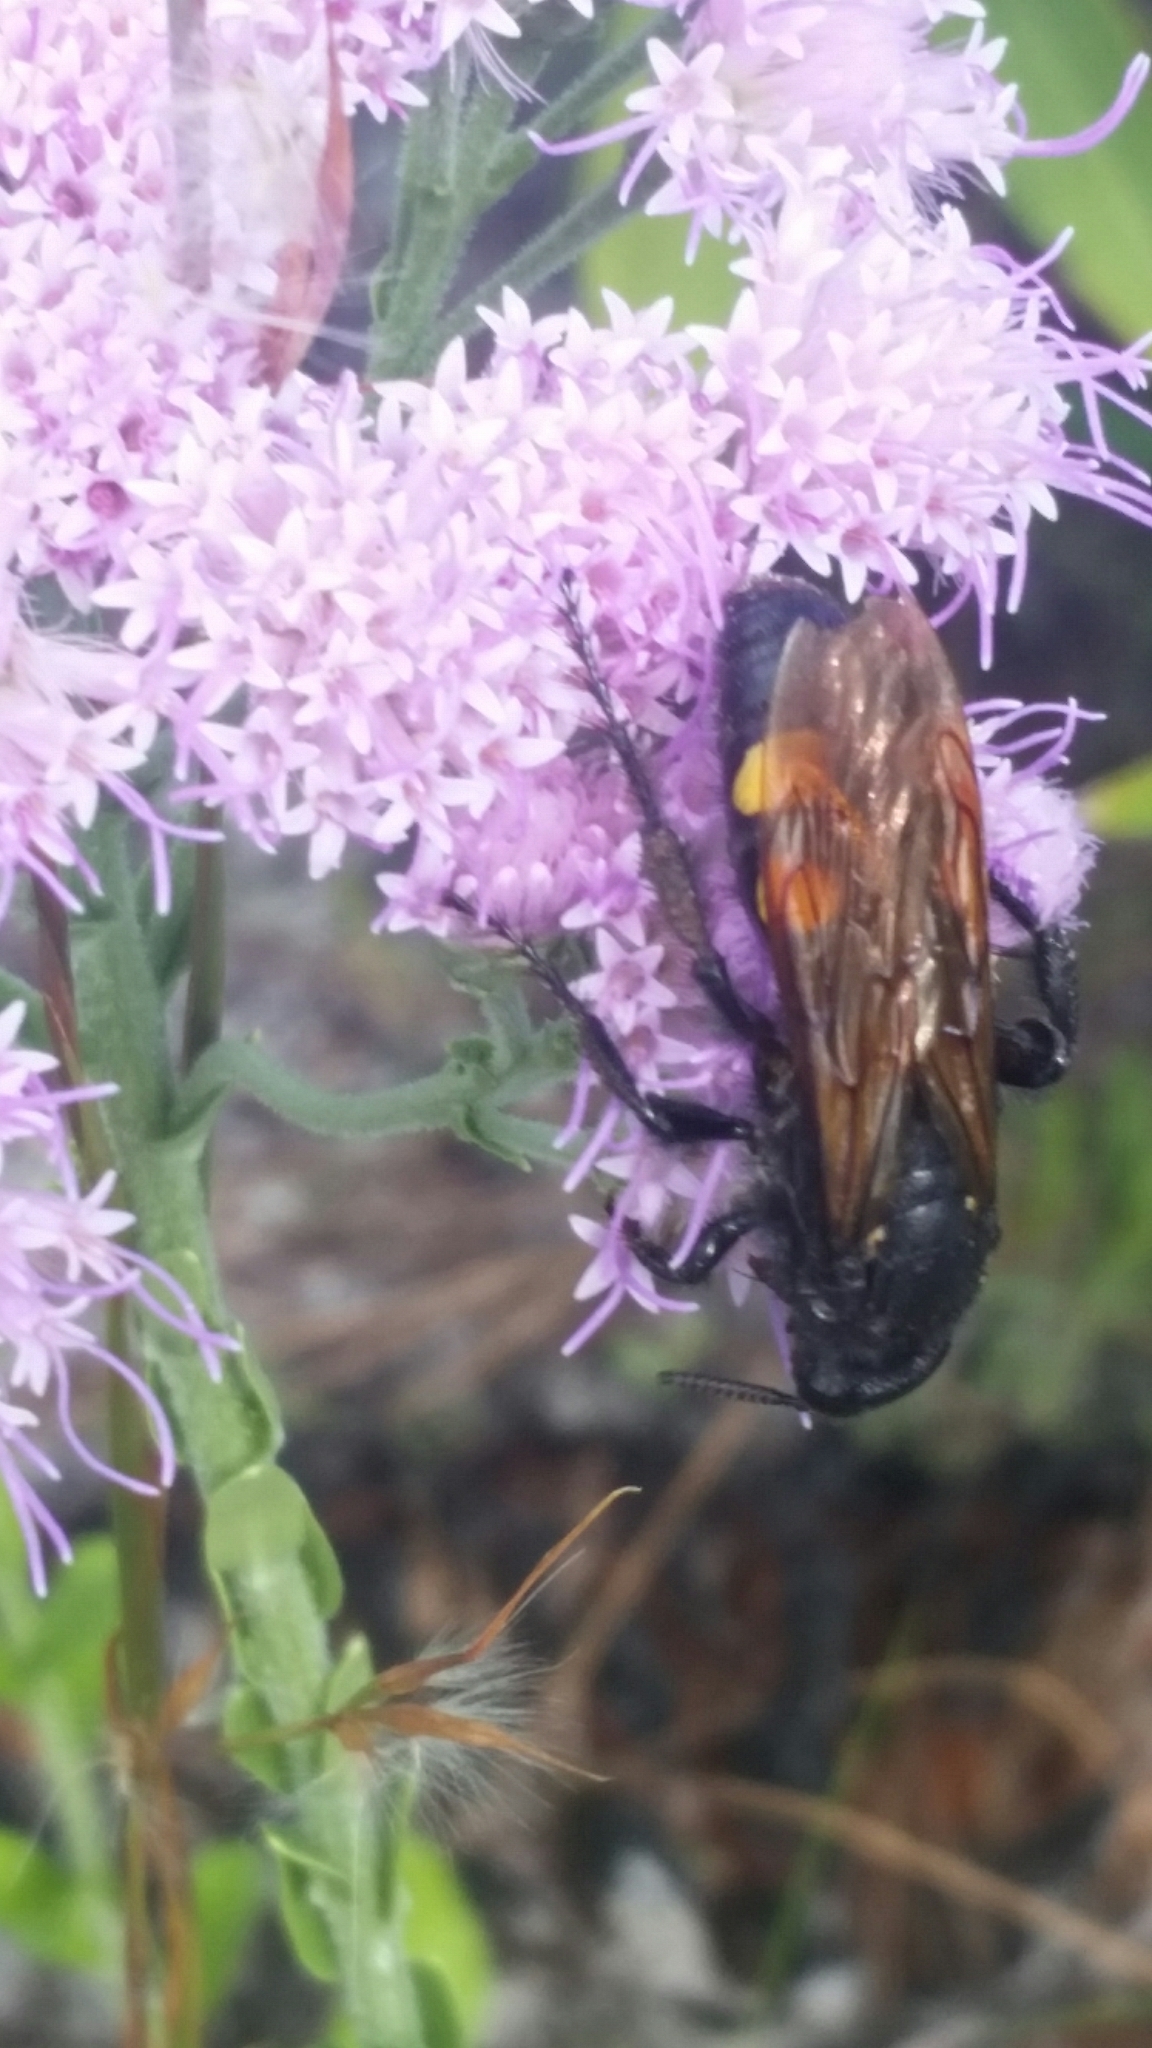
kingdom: Animalia
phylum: Arthropoda
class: Insecta
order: Hymenoptera
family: Scoliidae
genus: Pygodasis
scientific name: Pygodasis
